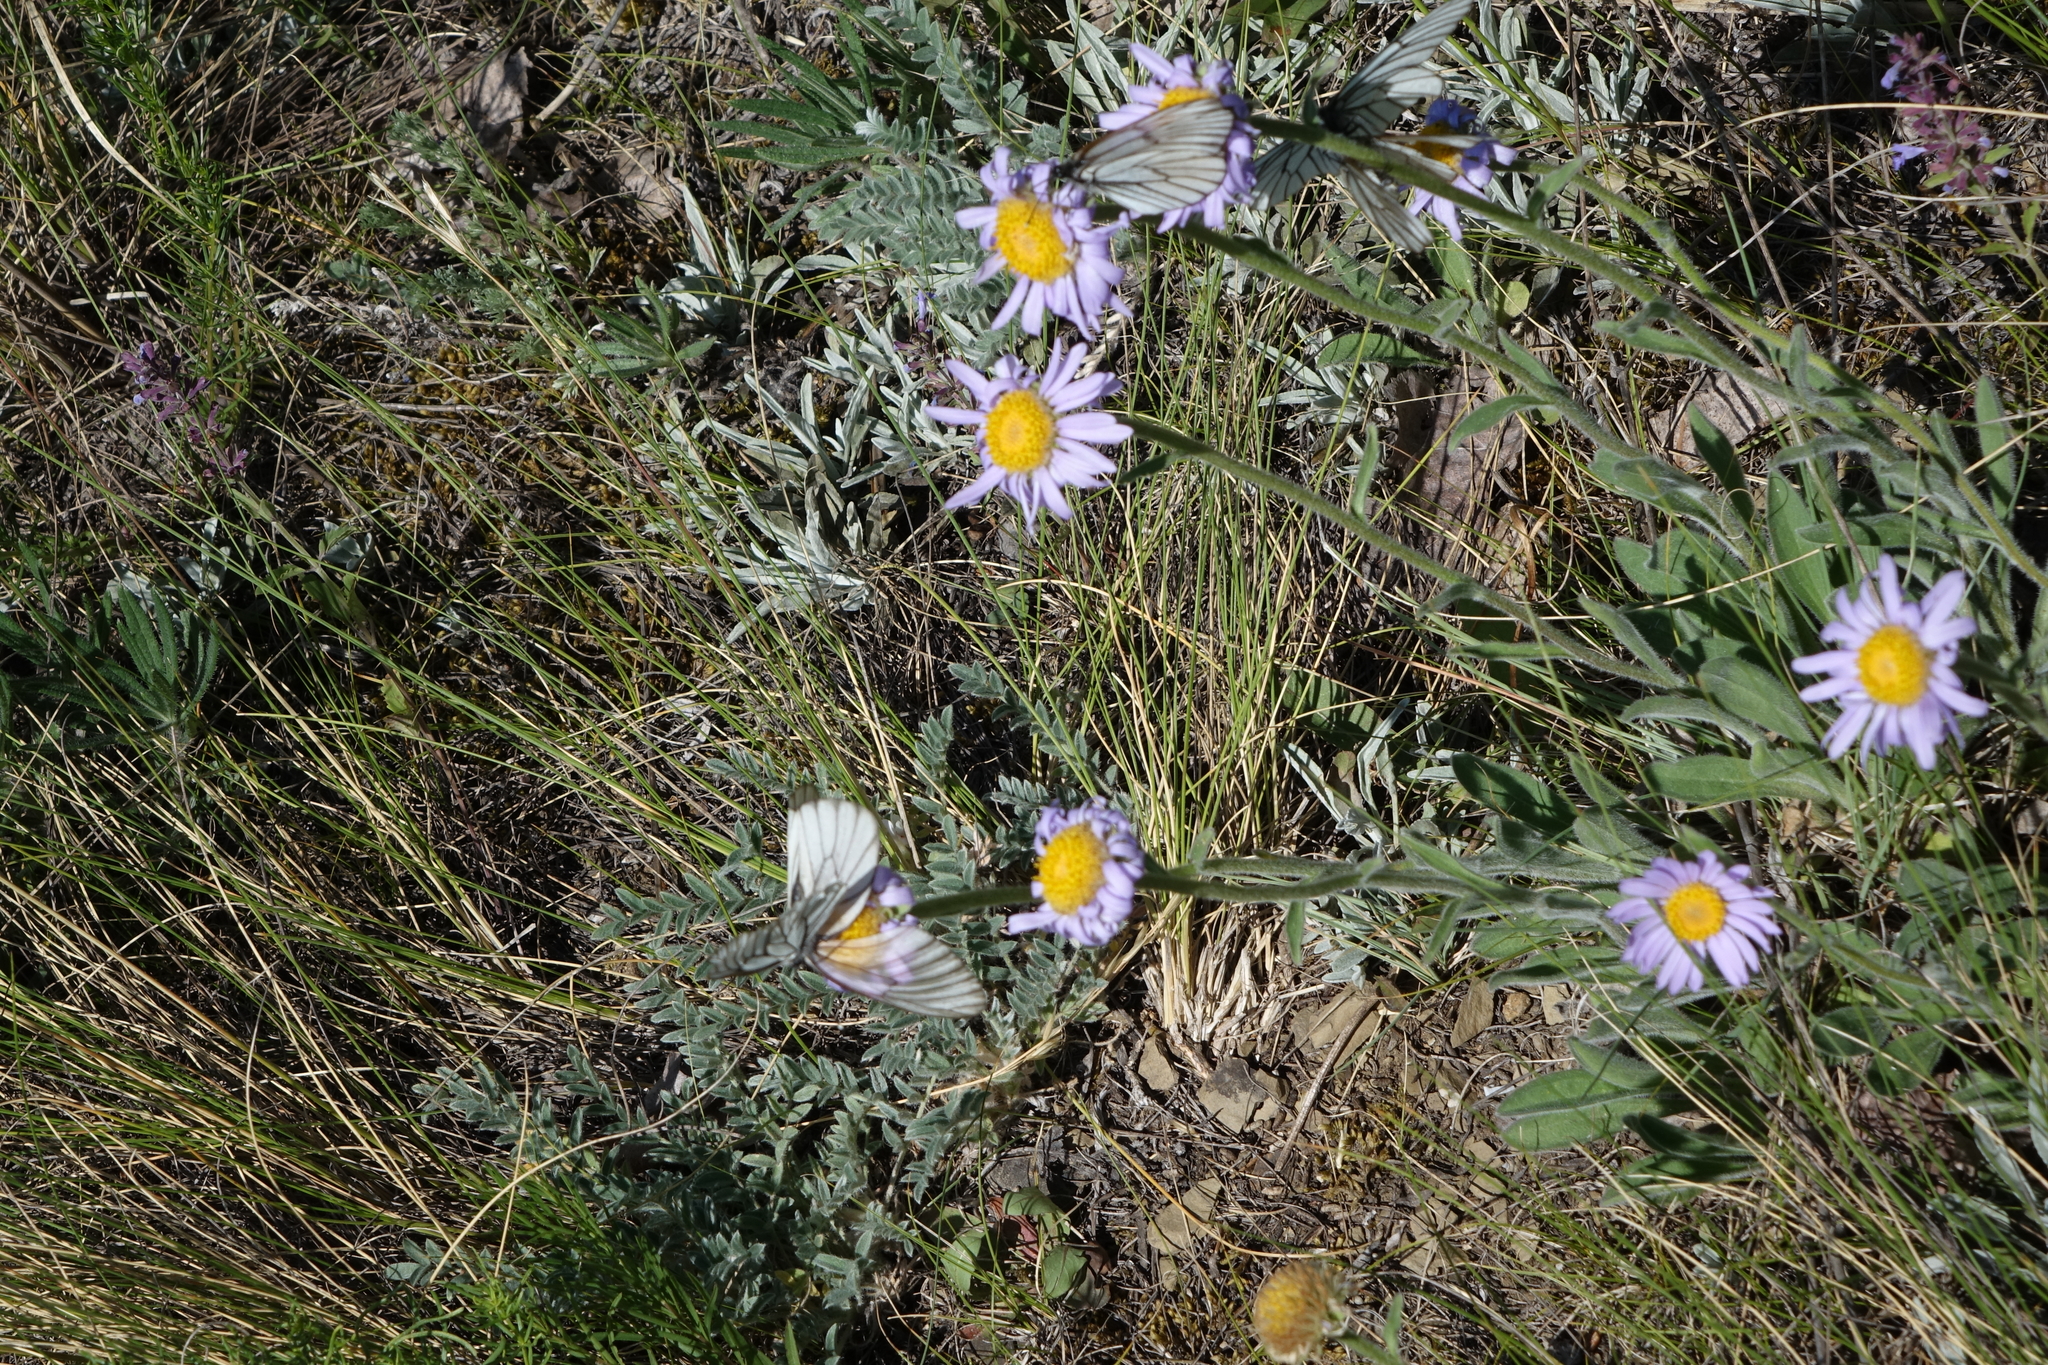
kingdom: Plantae
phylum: Tracheophyta
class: Magnoliopsida
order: Asterales
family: Asteraceae
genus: Aster
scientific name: Aster alpinus
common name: Alpine aster
